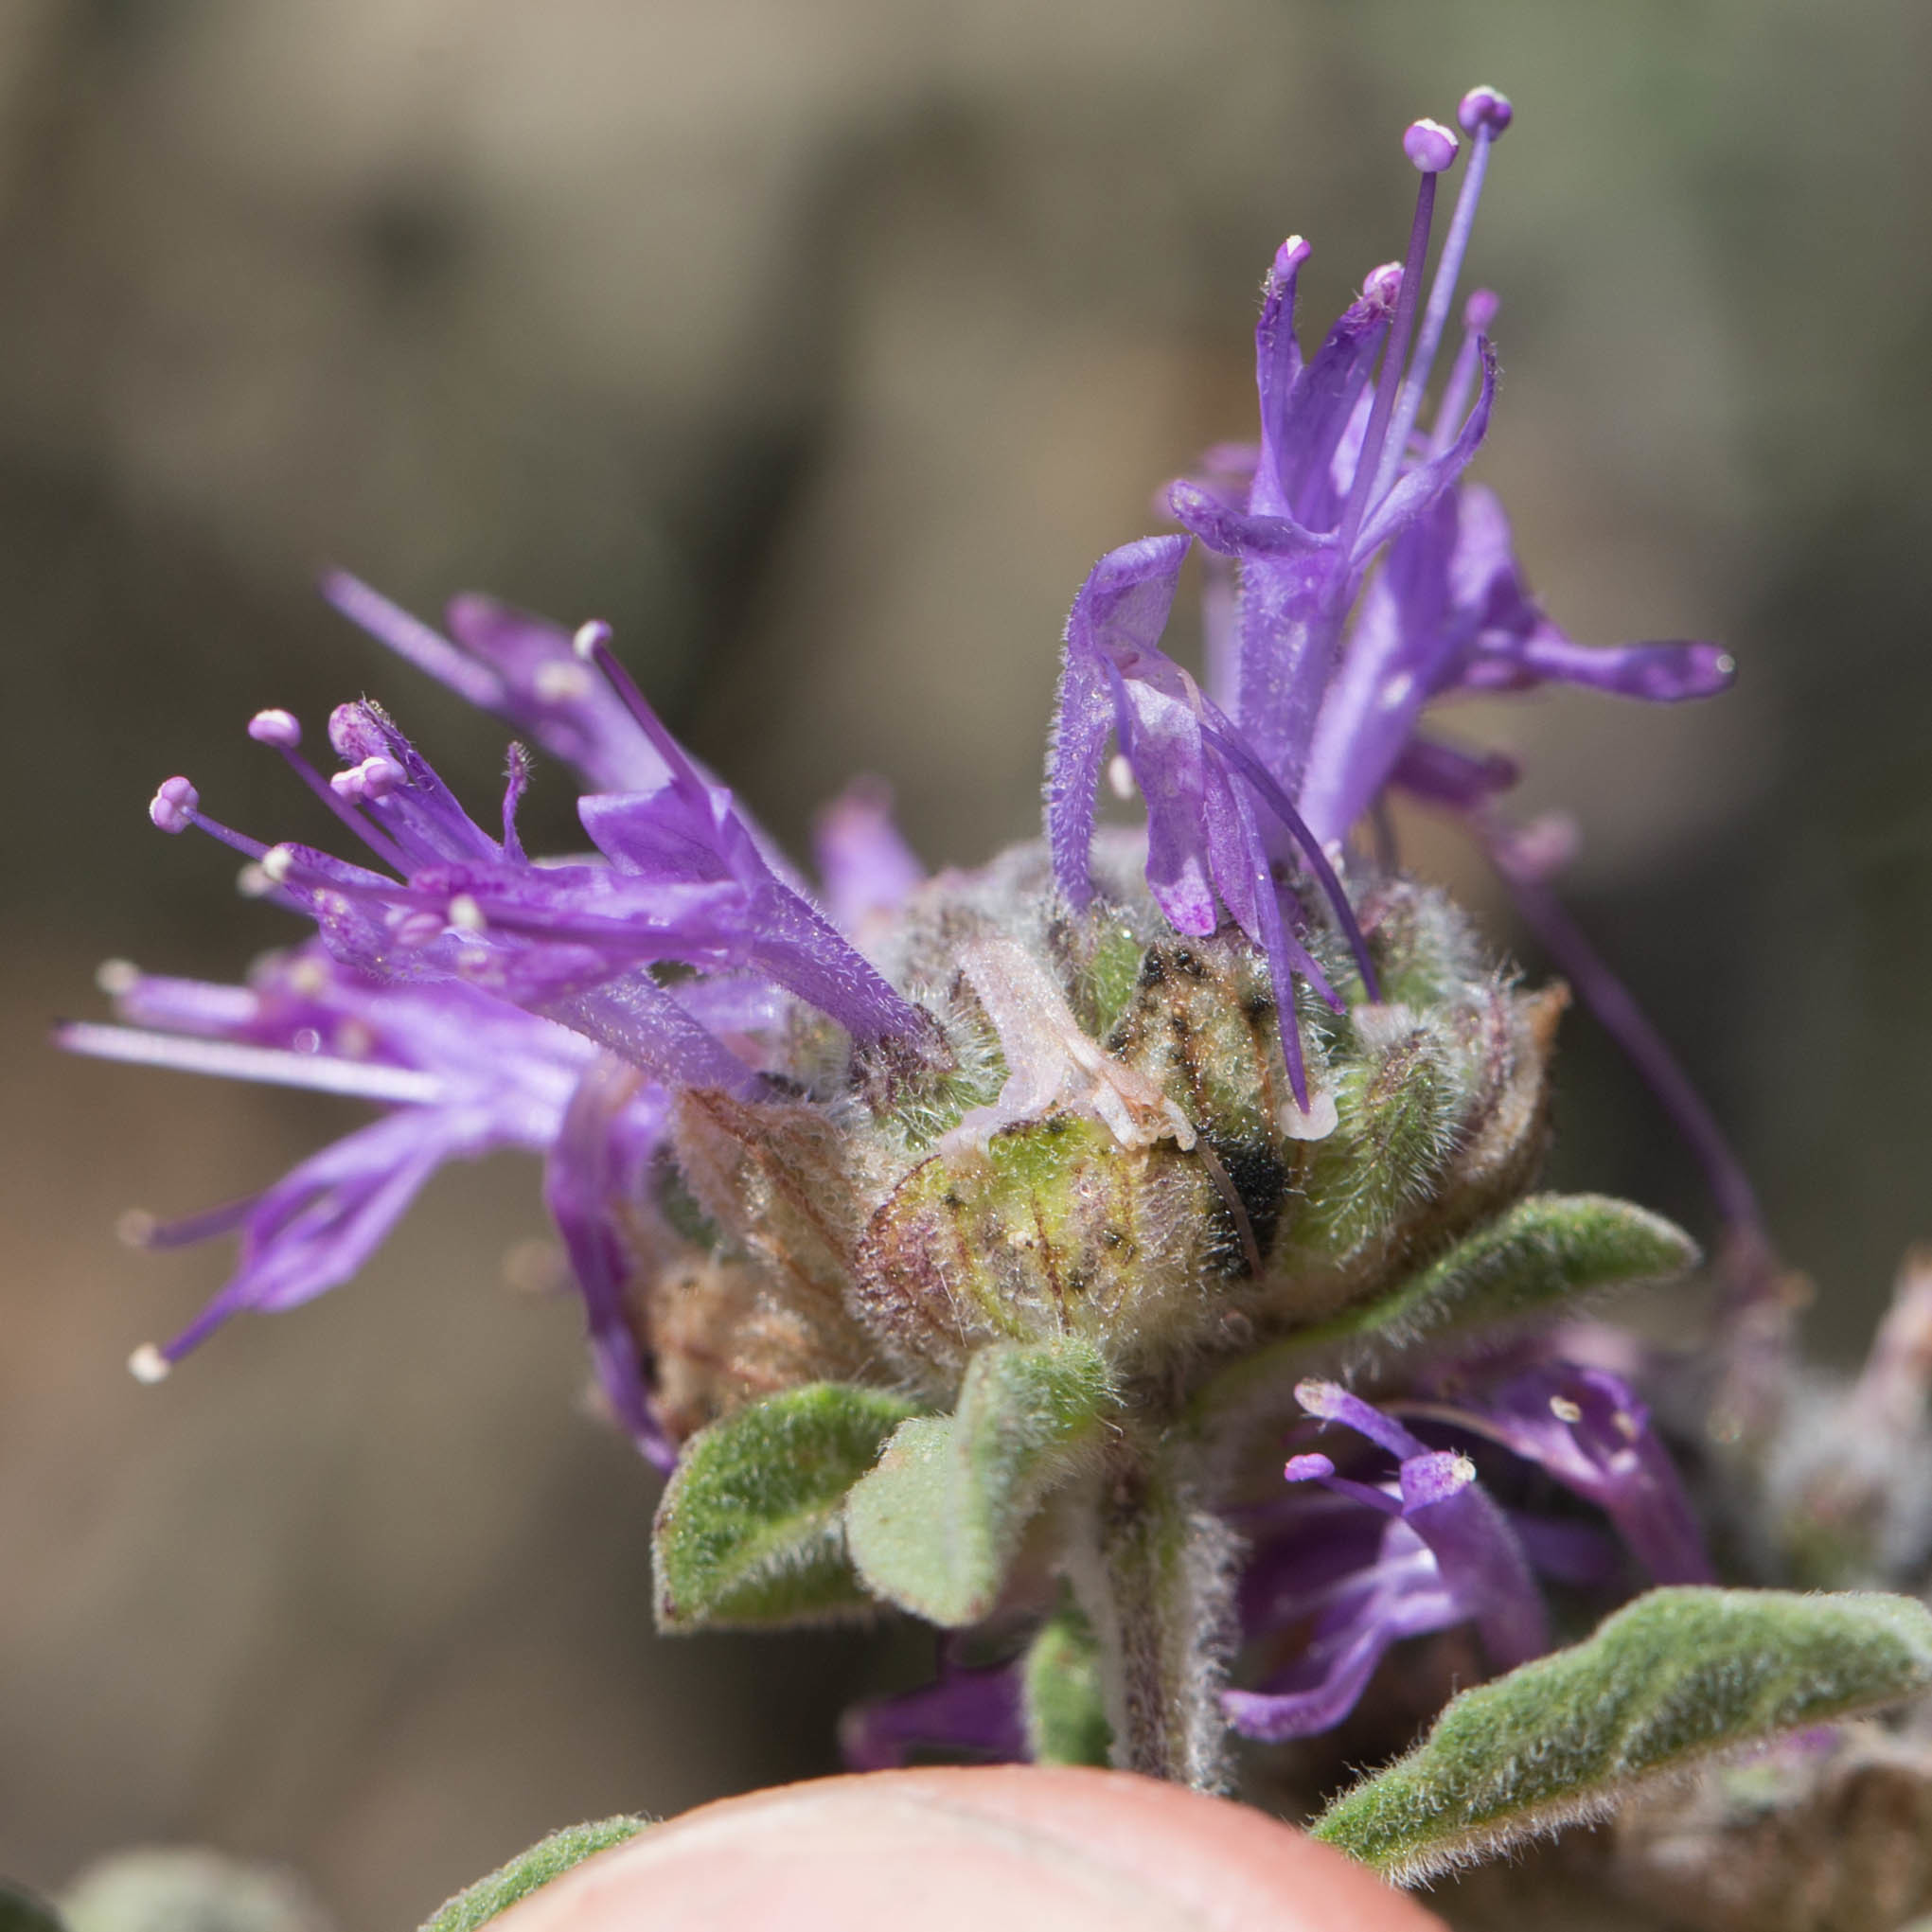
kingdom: Plantae
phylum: Tracheophyta
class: Magnoliopsida
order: Lamiales
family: Lamiaceae
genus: Monardella
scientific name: Monardella undulata
